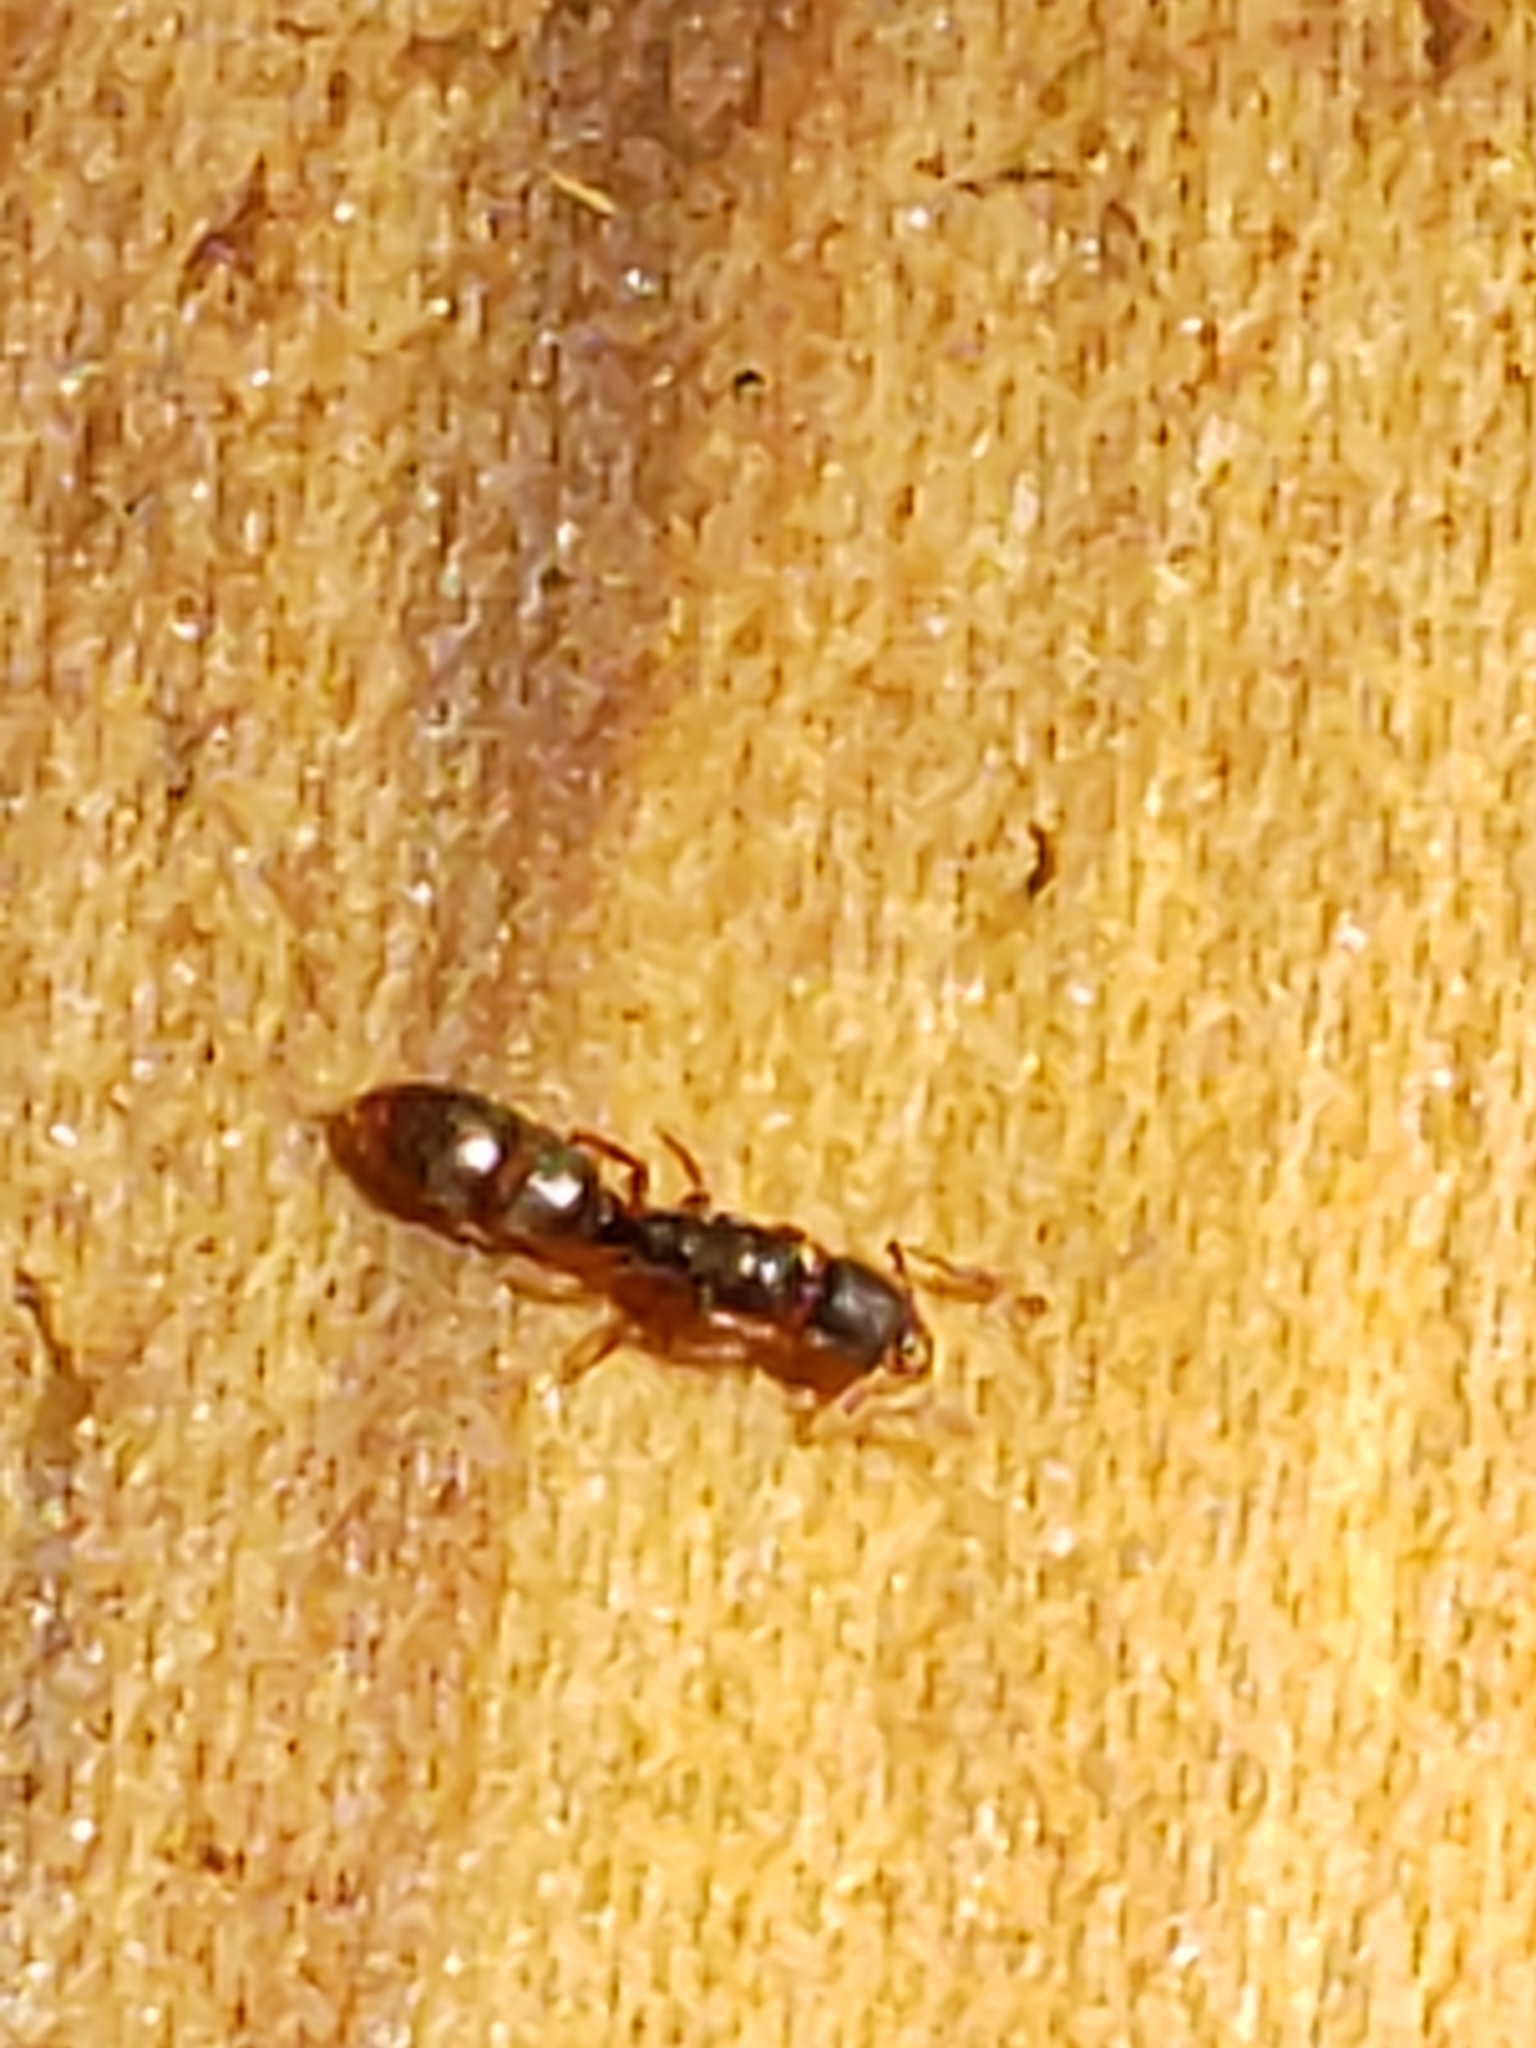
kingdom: Animalia
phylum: Arthropoda
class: Insecta
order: Hymenoptera
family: Formicidae
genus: Ponera
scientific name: Ponera pennsylvanica
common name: Pennsylvania ponera
